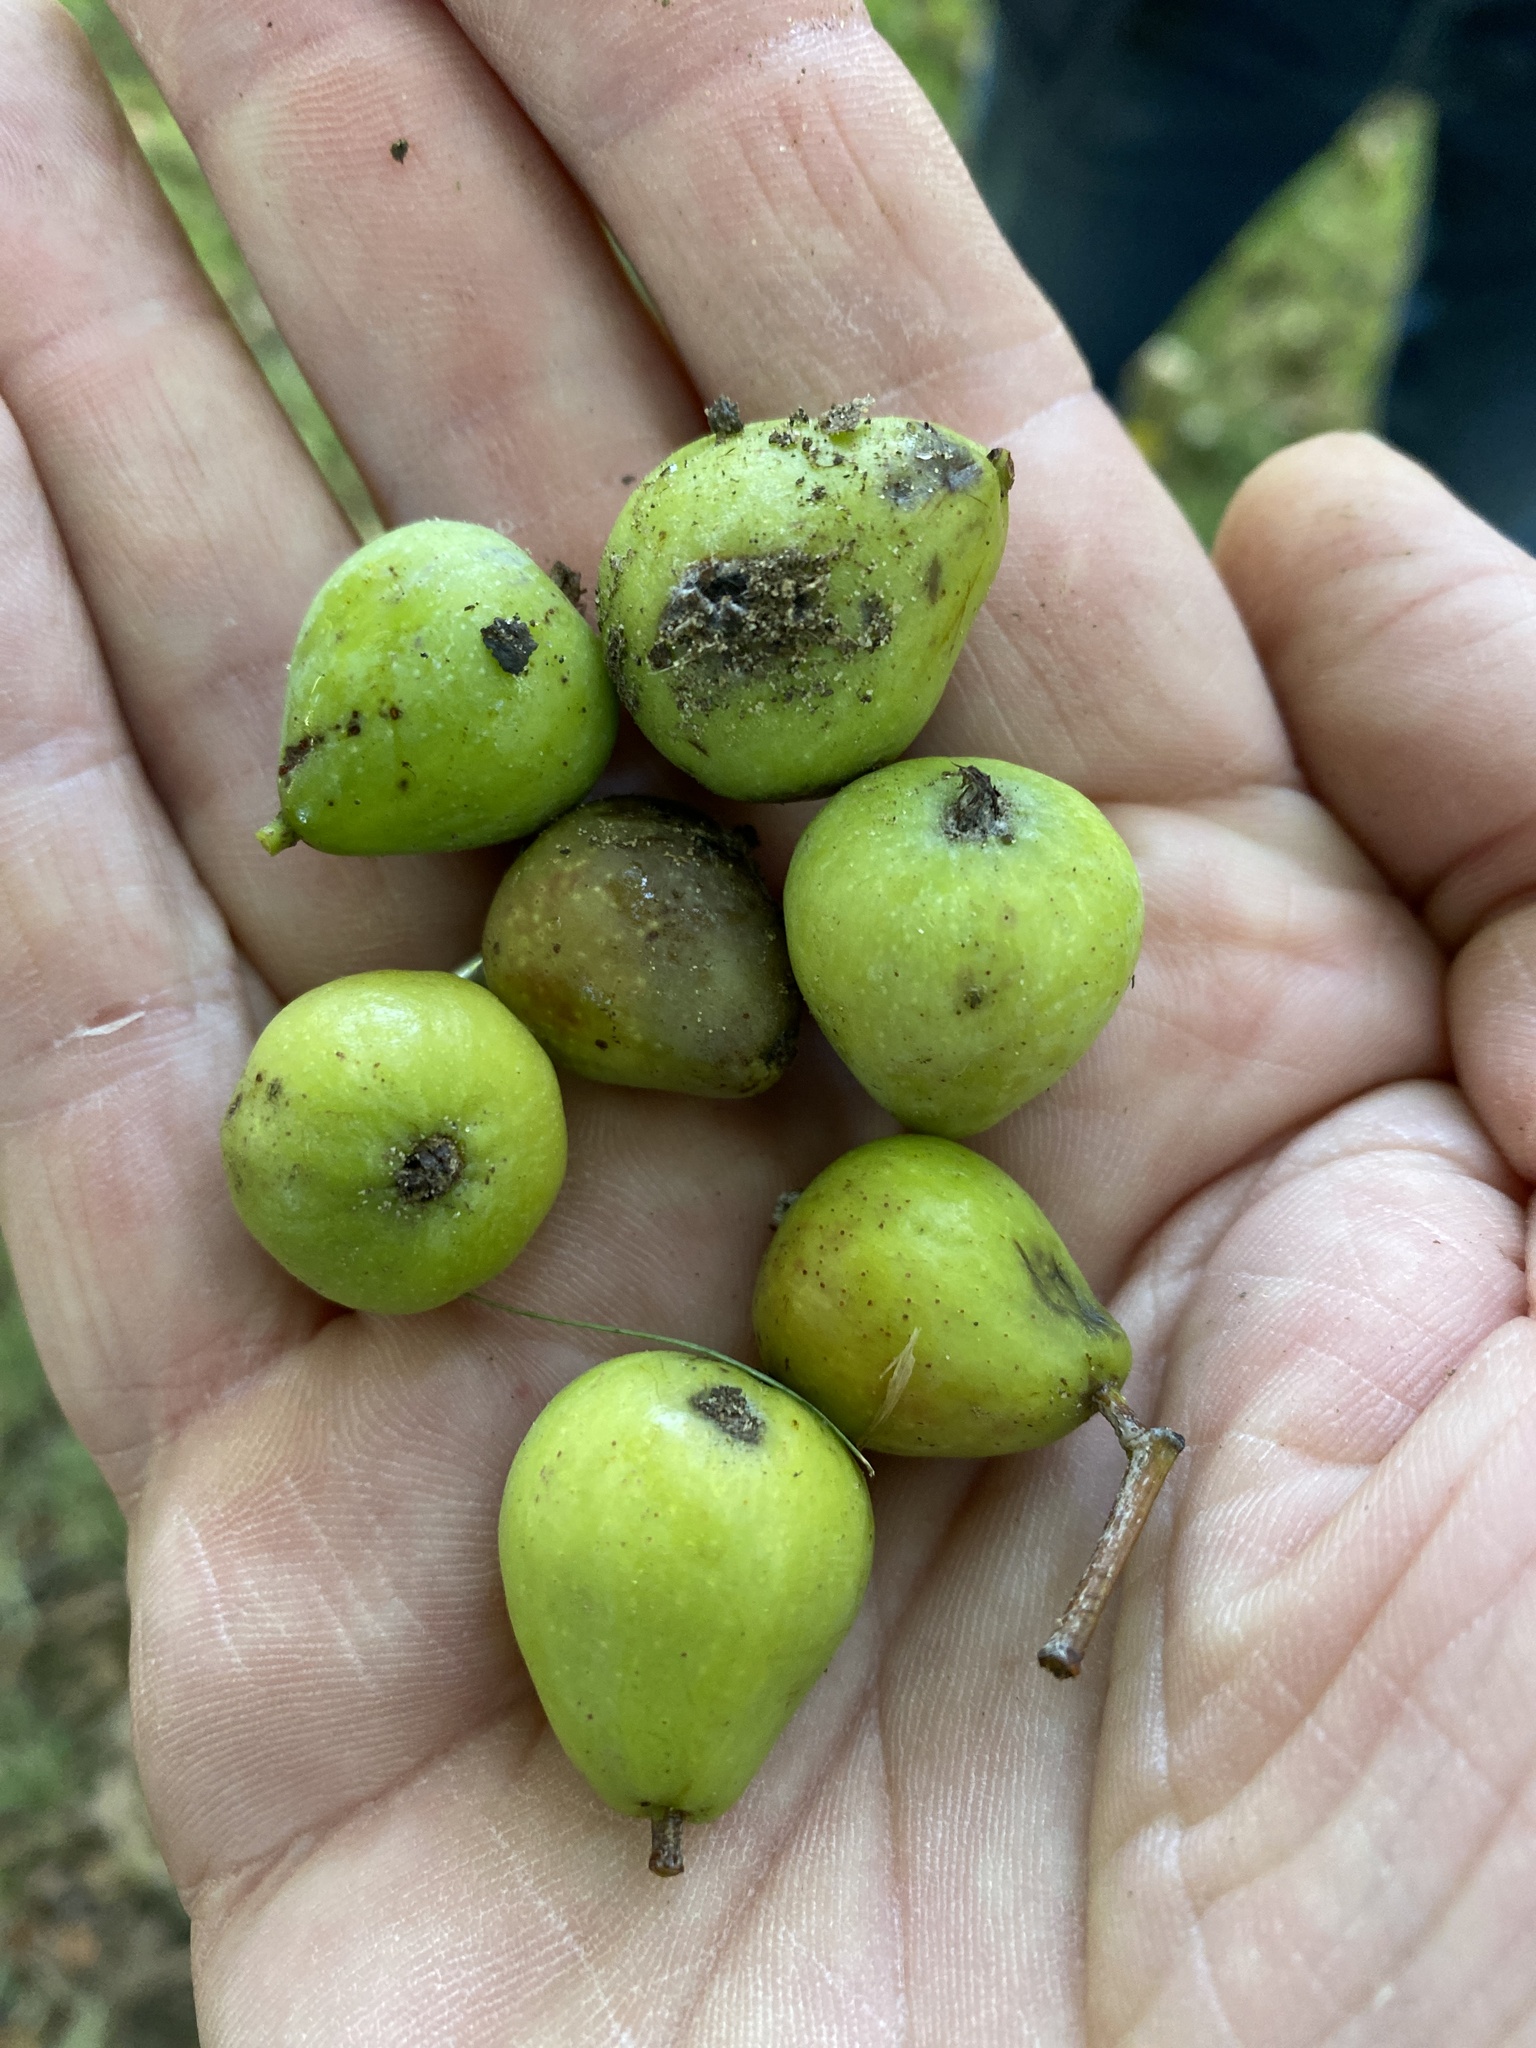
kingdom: Plantae
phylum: Tracheophyta
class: Magnoliopsida
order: Rosales
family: Rosaceae
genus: Cormus
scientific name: Cormus domestica
